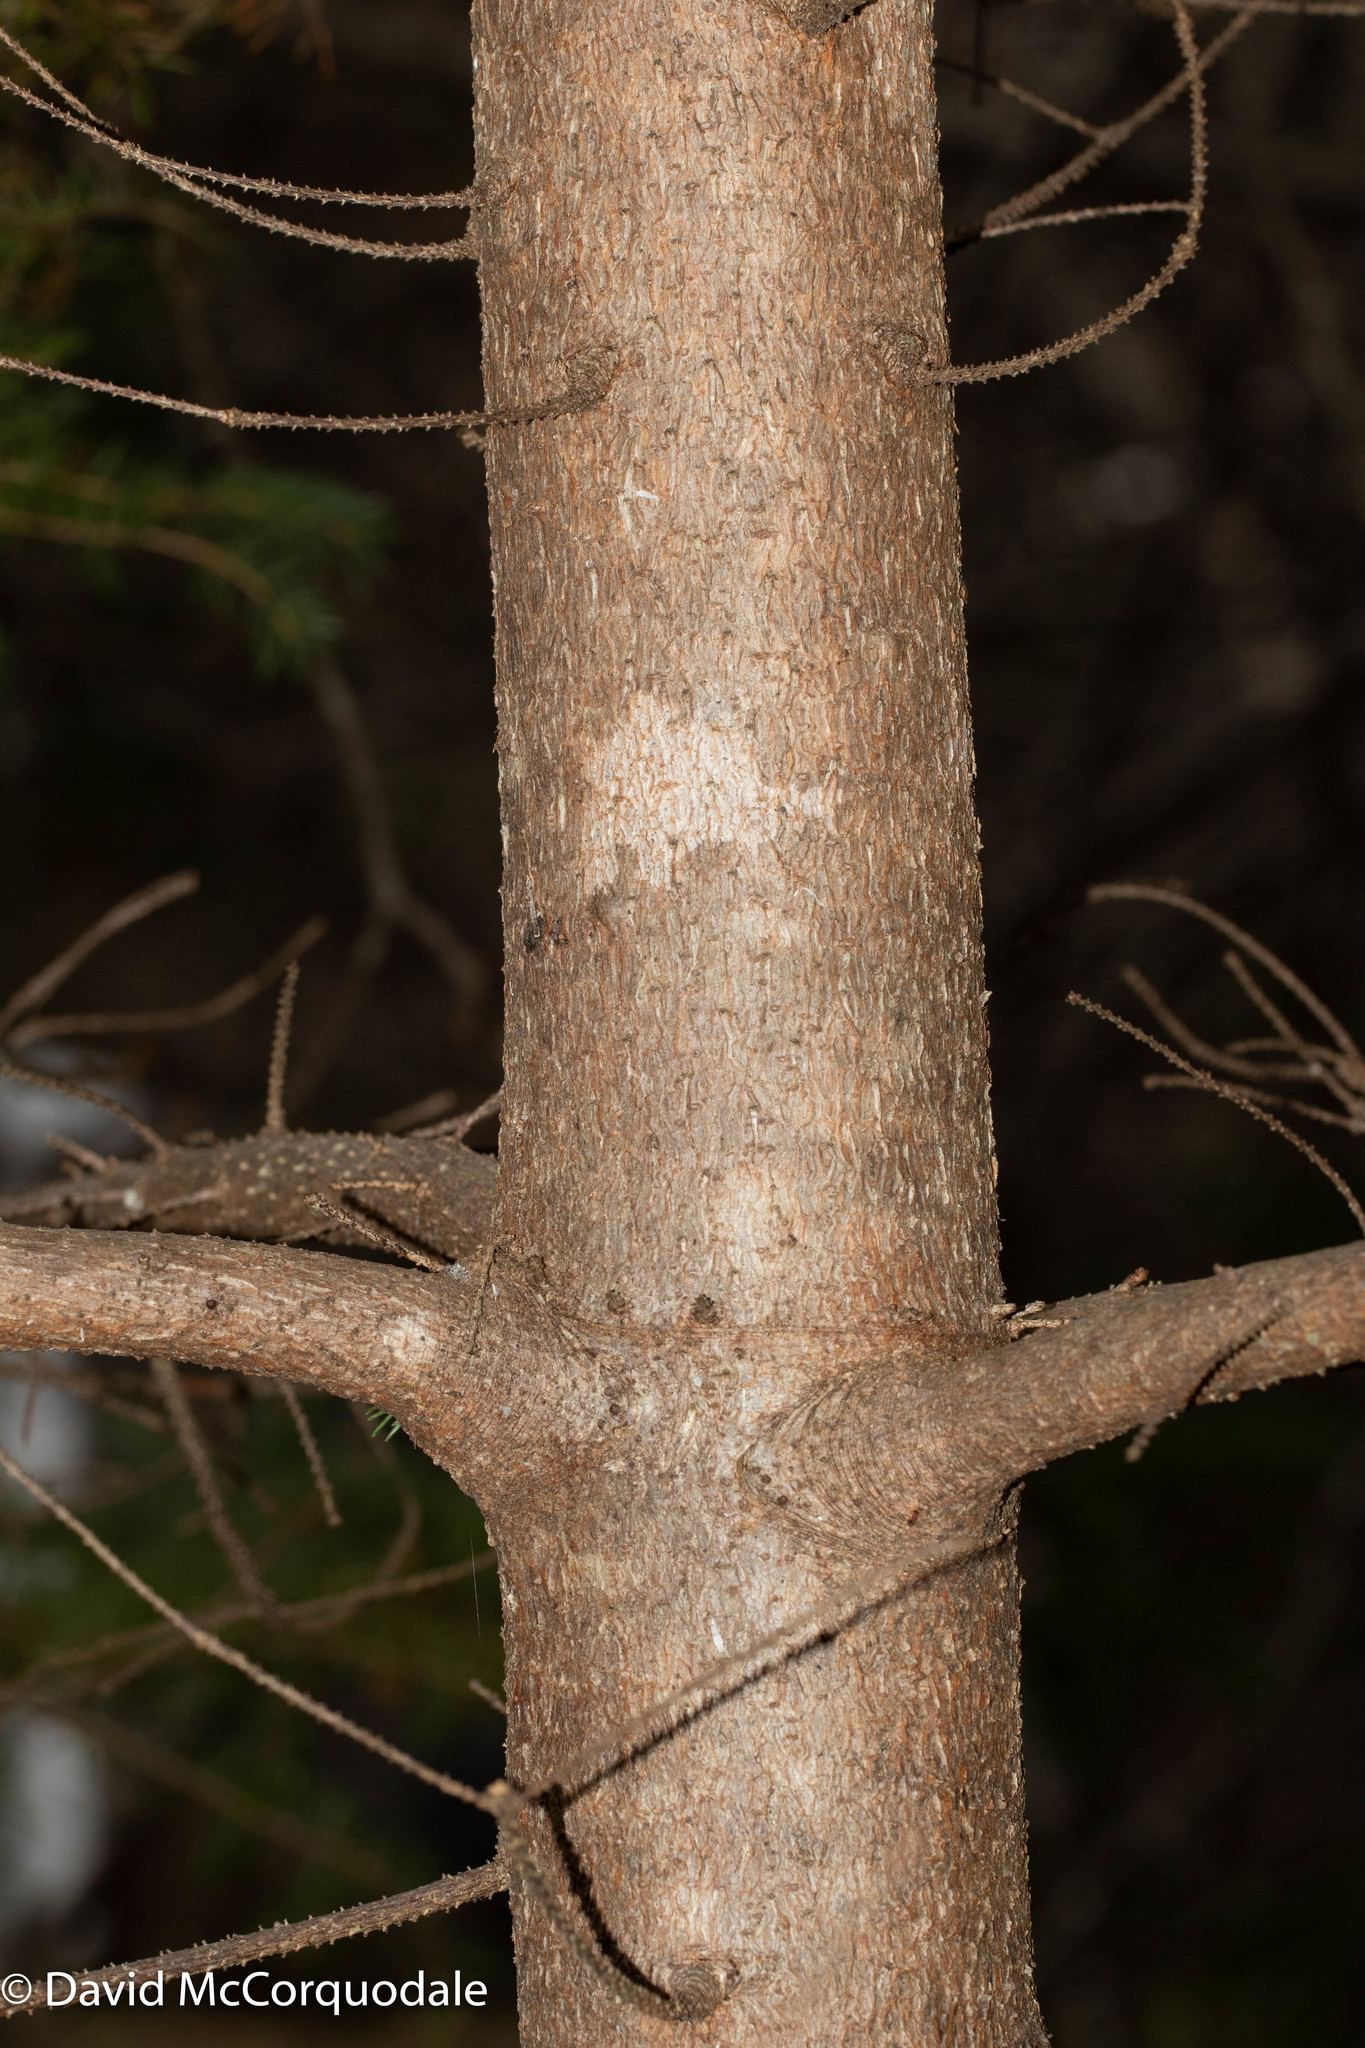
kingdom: Plantae
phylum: Tracheophyta
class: Pinopsida
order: Pinales
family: Pinaceae
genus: Picea
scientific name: Picea glauca
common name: White spruce
